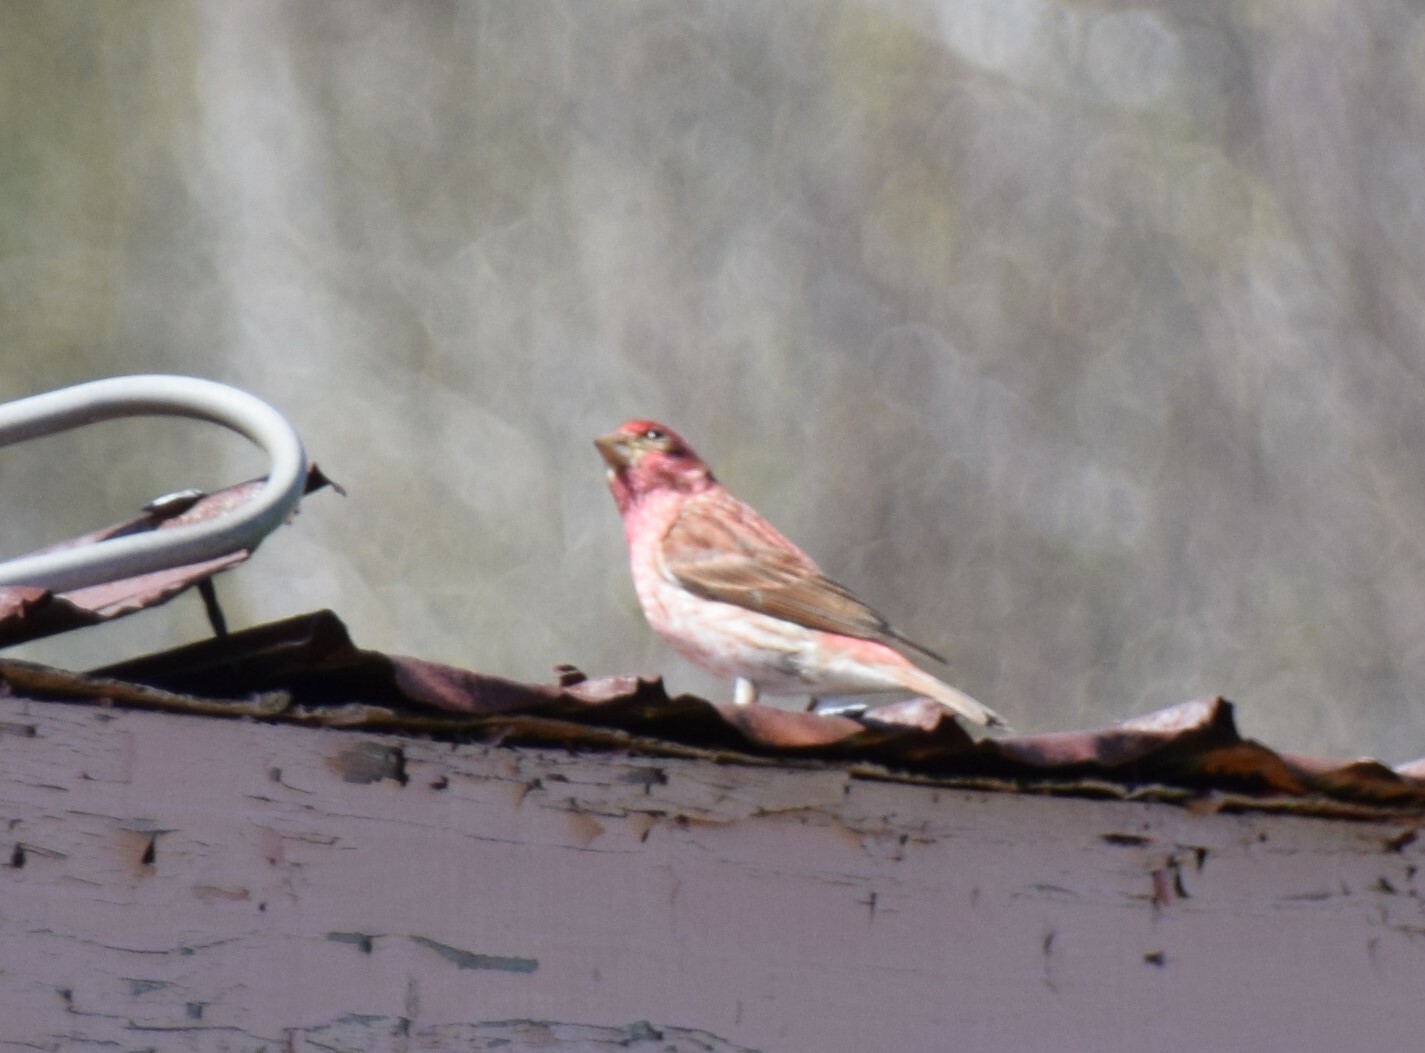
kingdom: Animalia
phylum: Chordata
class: Aves
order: Passeriformes
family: Fringillidae
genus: Haemorhous
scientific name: Haemorhous purpureus
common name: Purple finch
